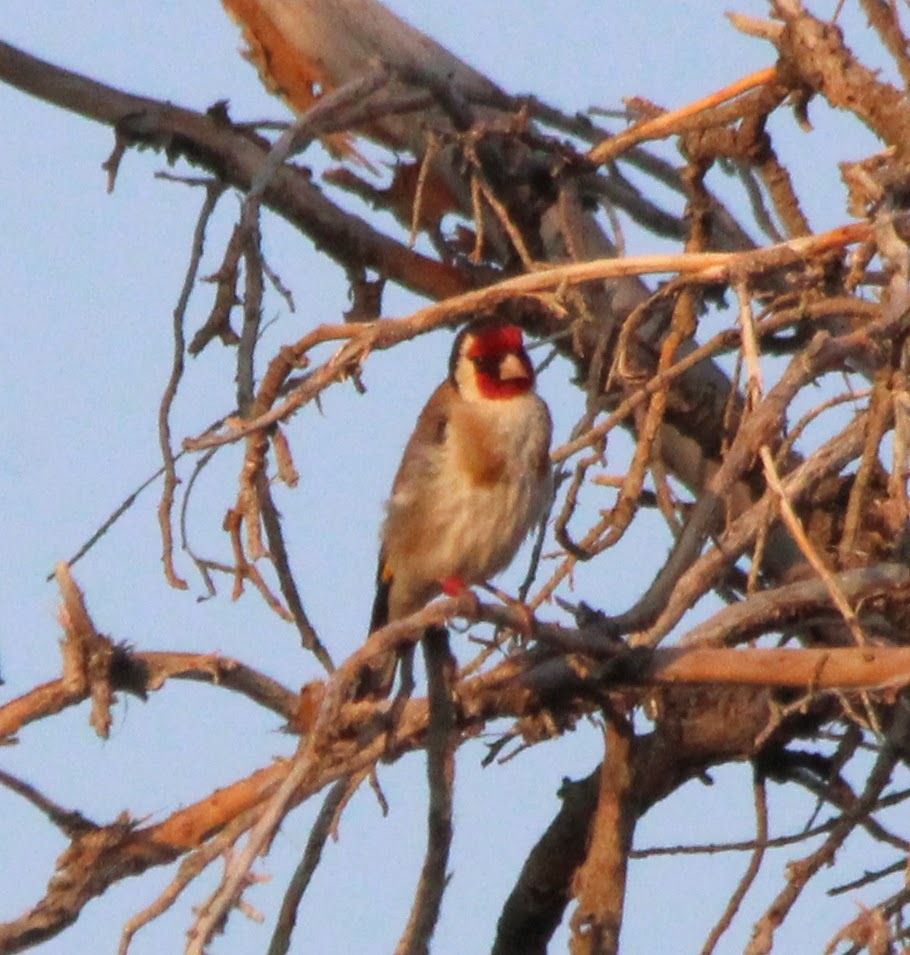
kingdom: Animalia
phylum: Chordata
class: Aves
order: Passeriformes
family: Fringillidae
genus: Carduelis
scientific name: Carduelis carduelis
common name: European goldfinch
